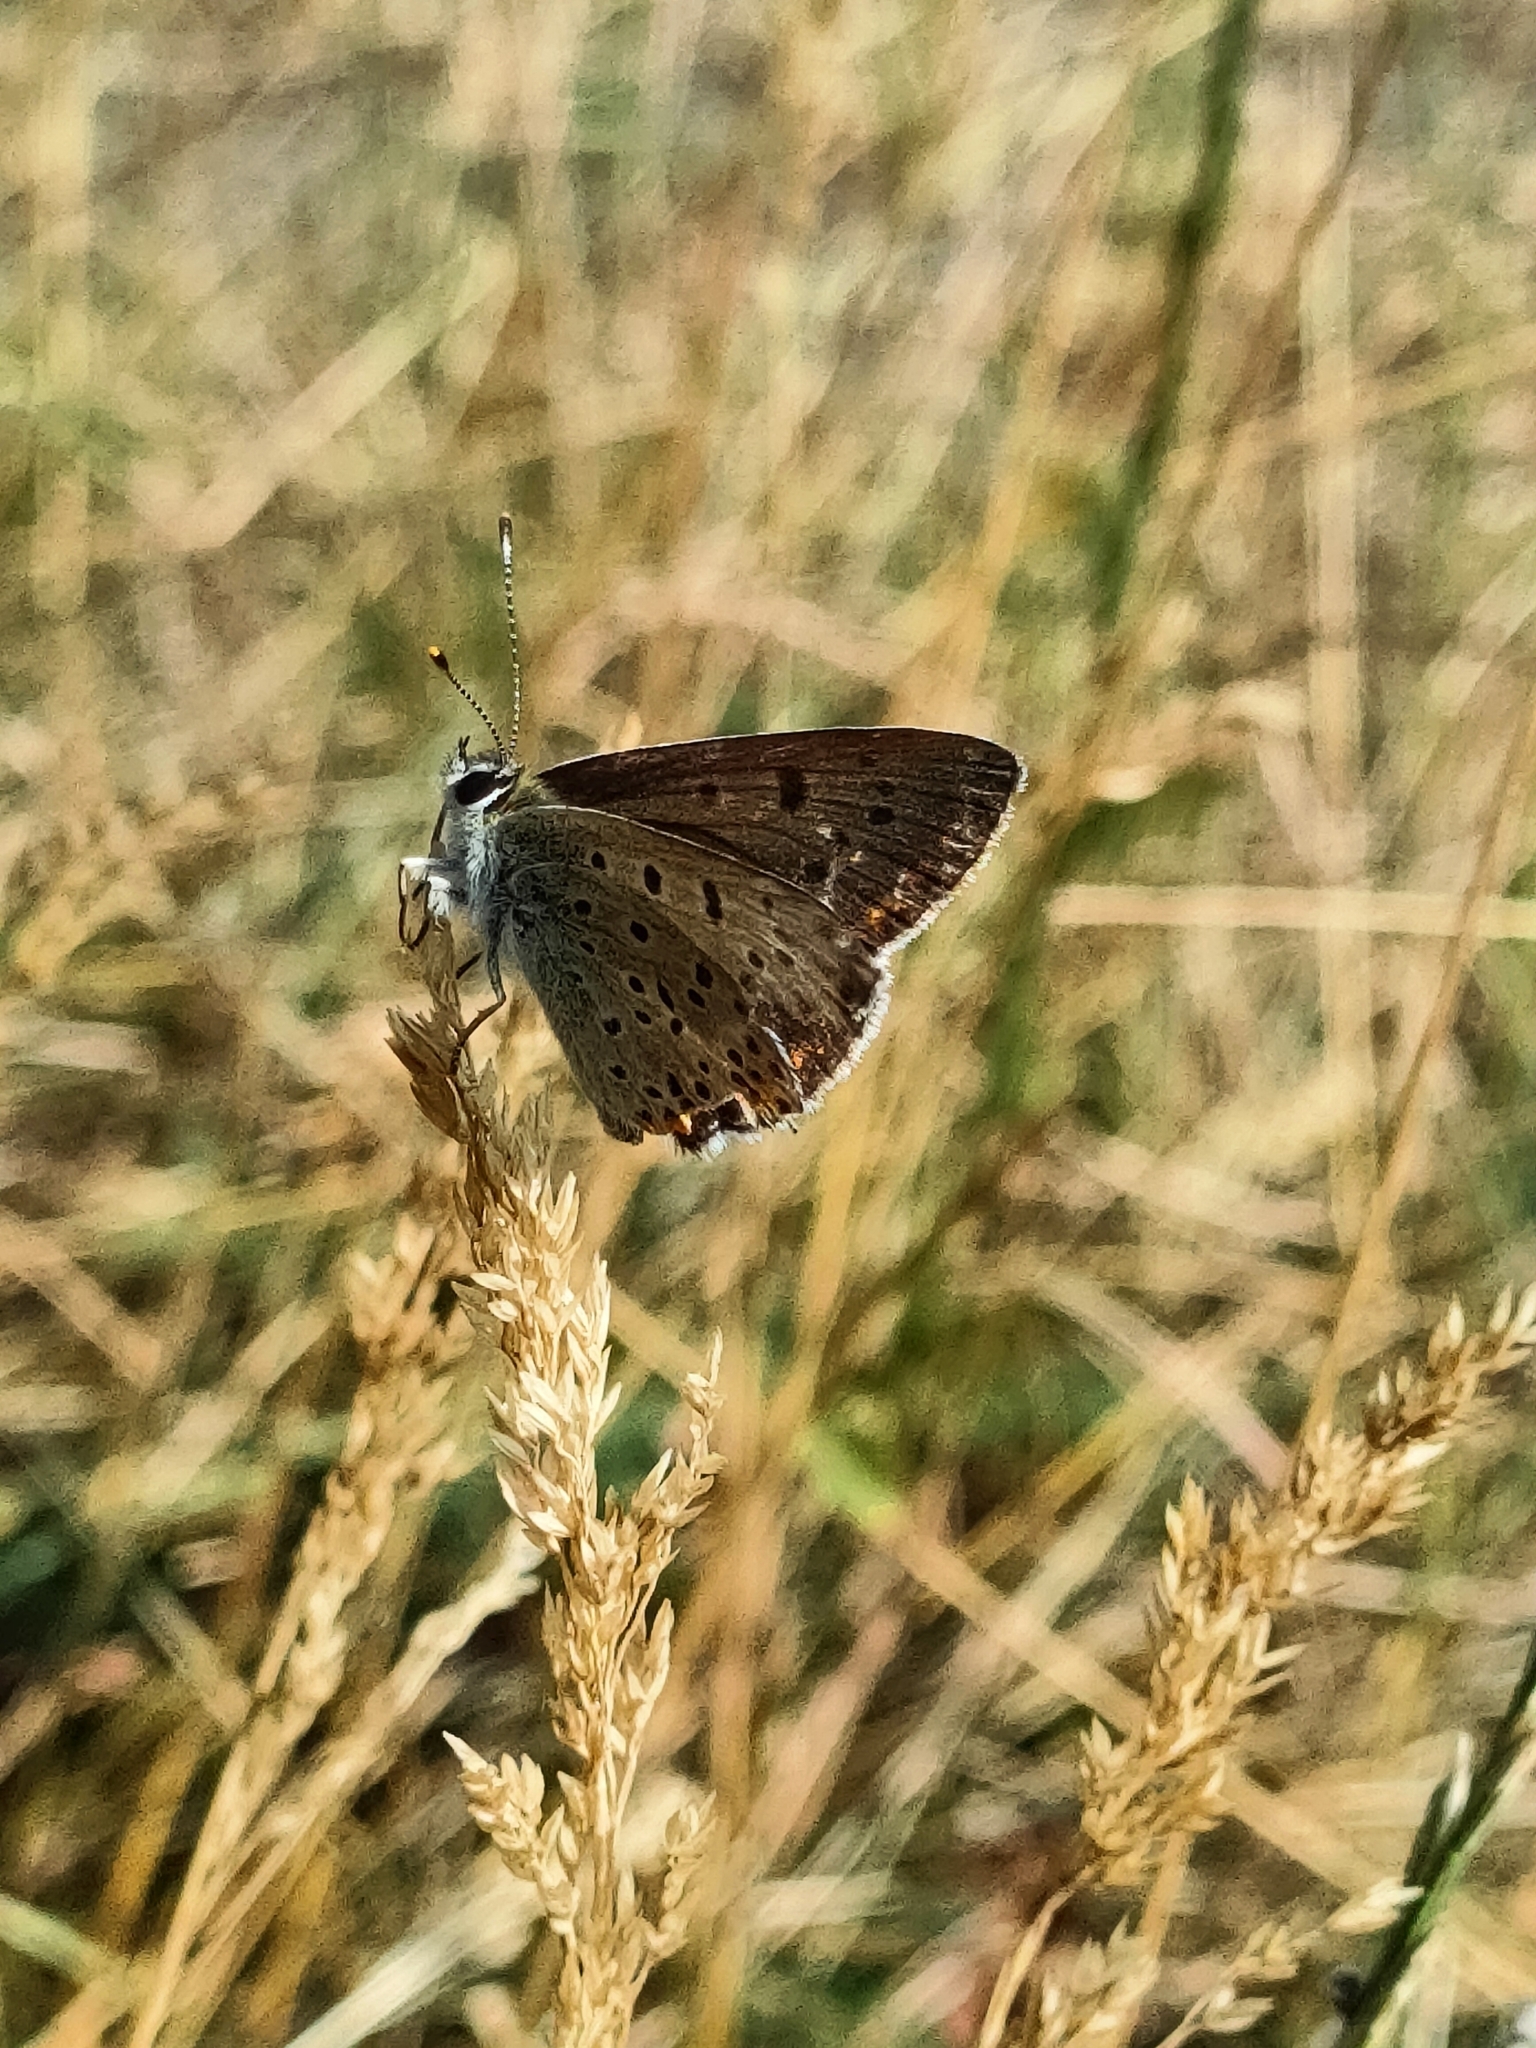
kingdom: Animalia
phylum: Arthropoda
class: Insecta
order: Lepidoptera
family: Lycaenidae
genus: Loweia
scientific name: Loweia tityrus
